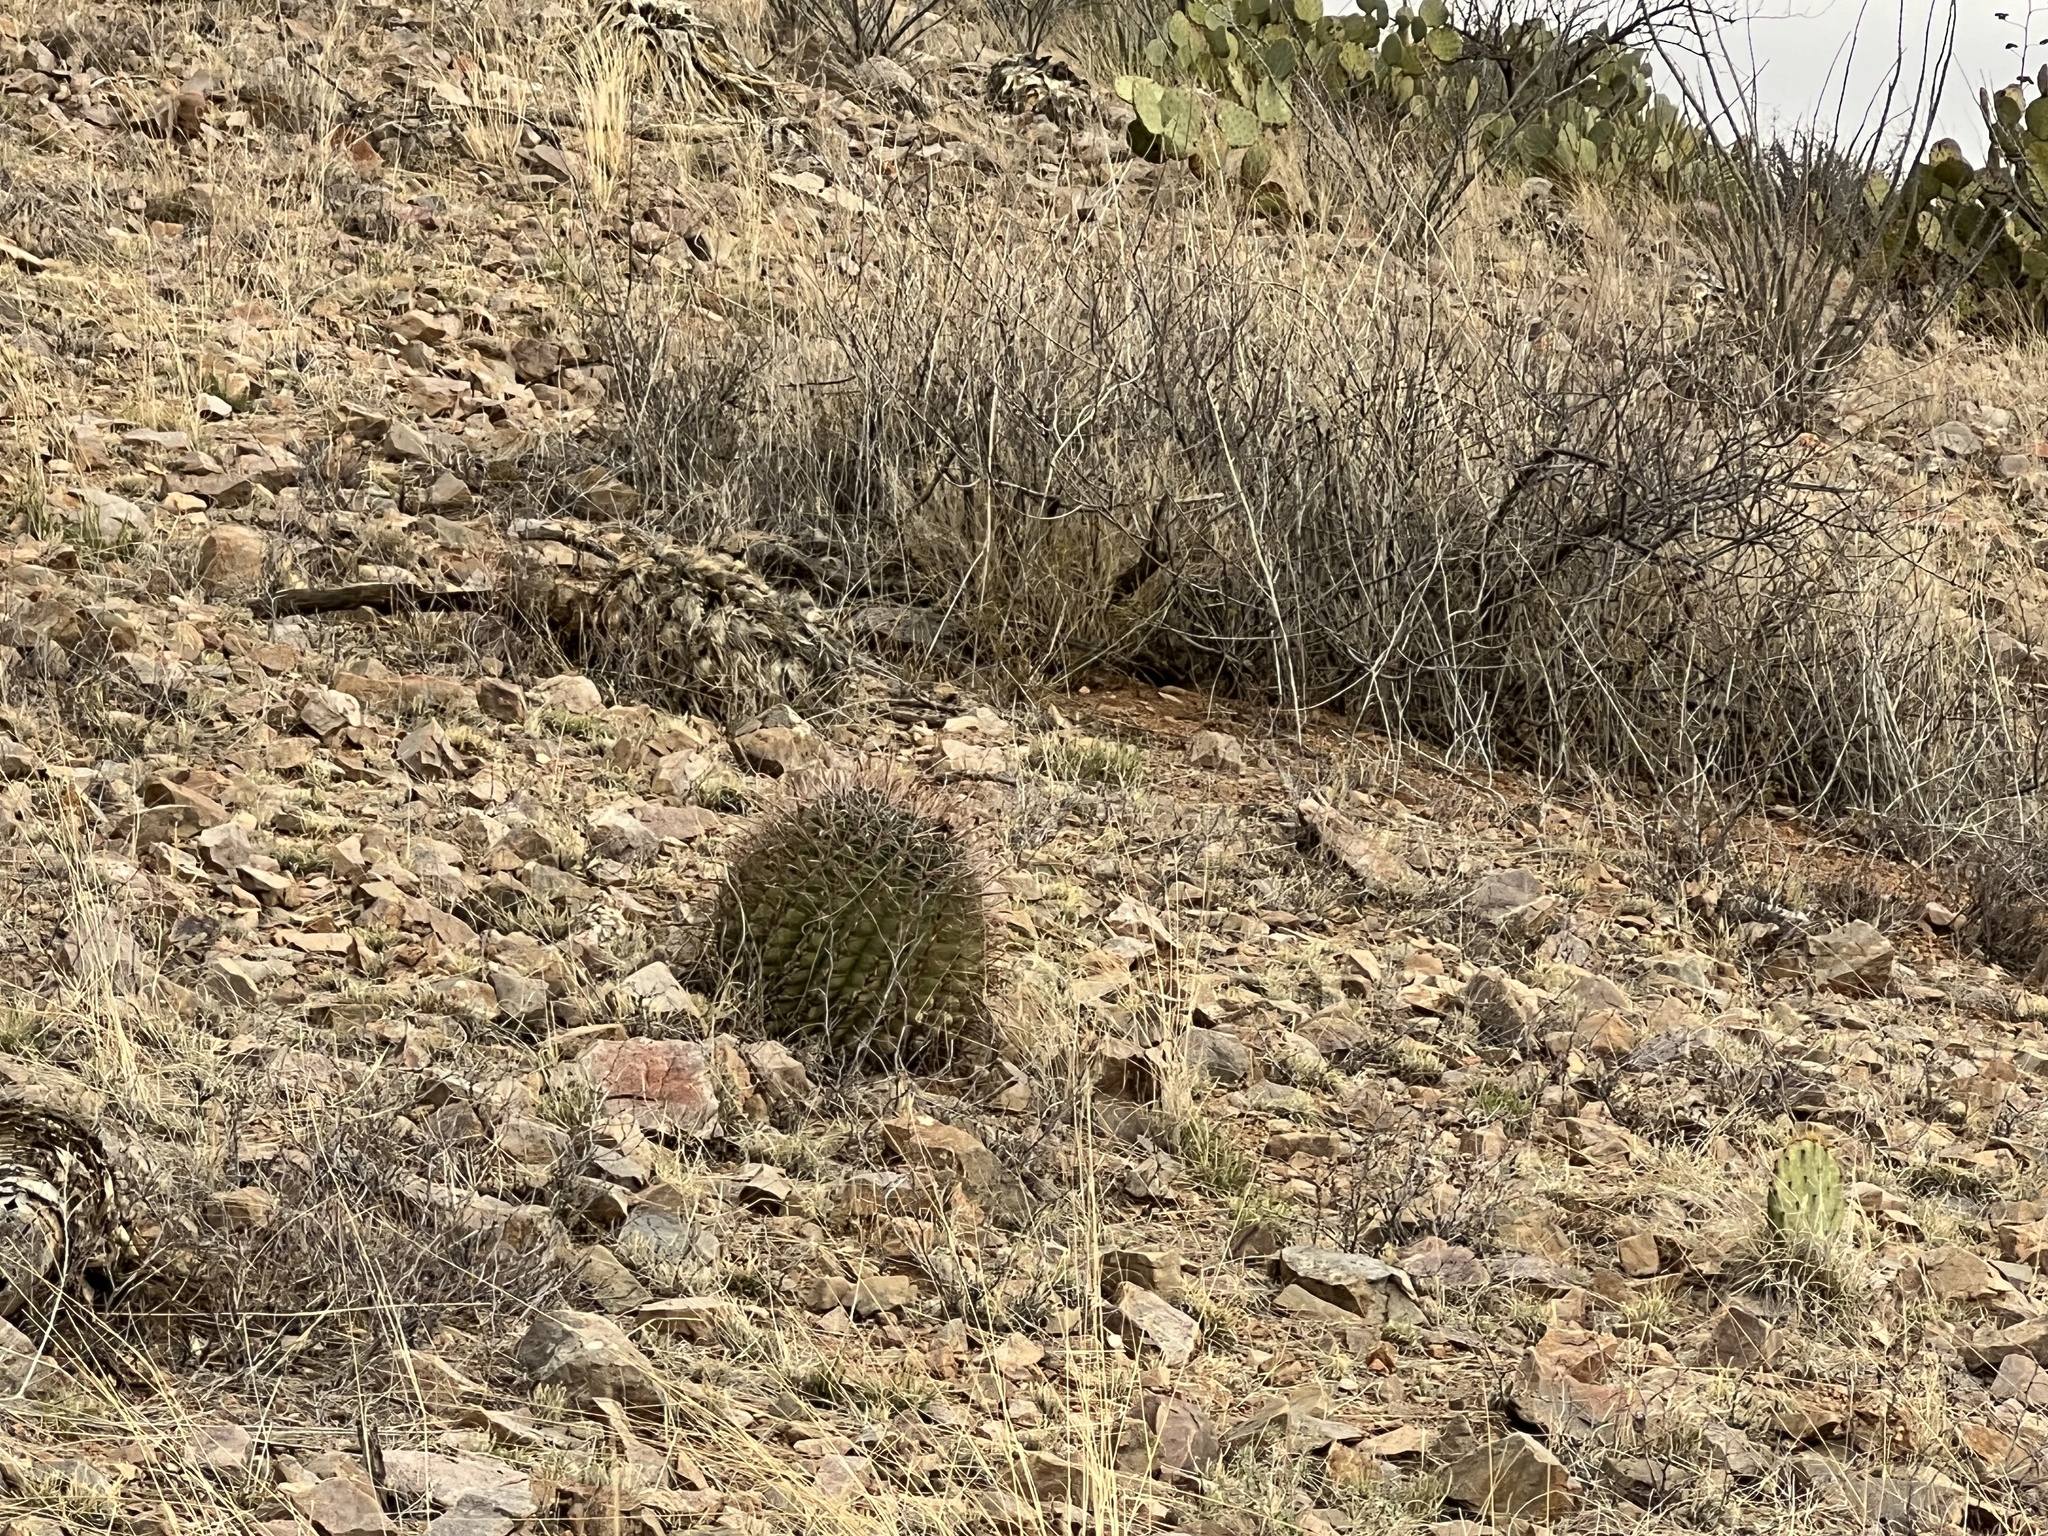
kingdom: Plantae
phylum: Tracheophyta
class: Magnoliopsida
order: Caryophyllales
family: Cactaceae
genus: Ferocactus
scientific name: Ferocactus wislizeni
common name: Candy barrel cactus
